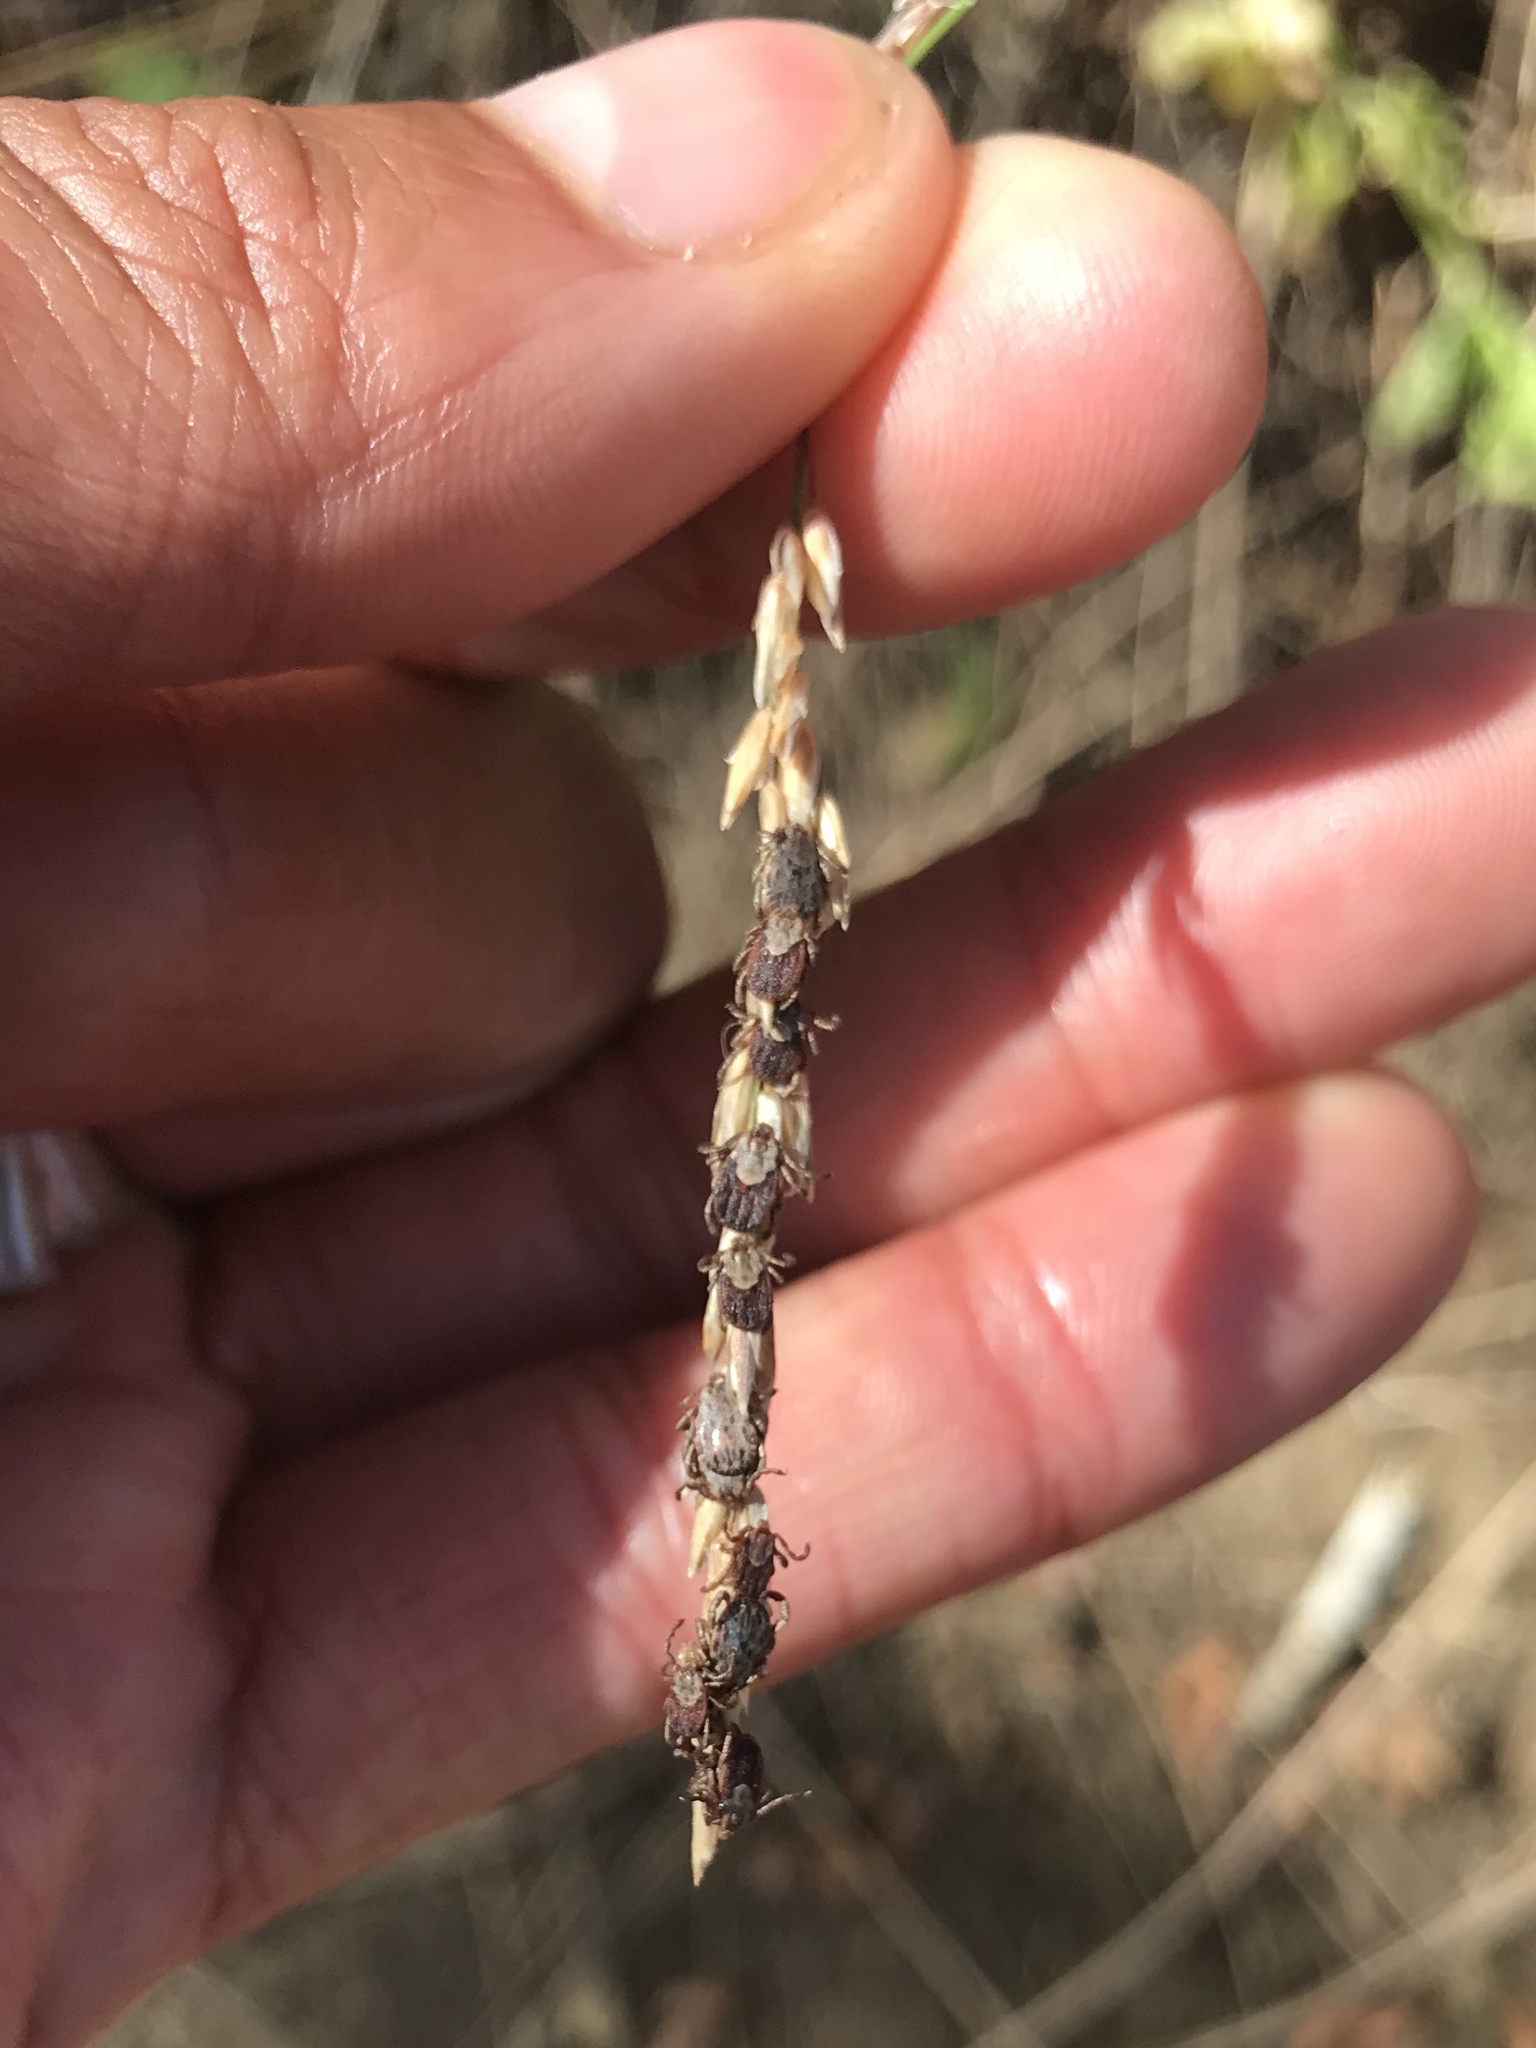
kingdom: Animalia
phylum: Arthropoda
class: Arachnida
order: Ixodida
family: Ixodidae
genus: Dermacentor
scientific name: Dermacentor occidentalis
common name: Net tick
